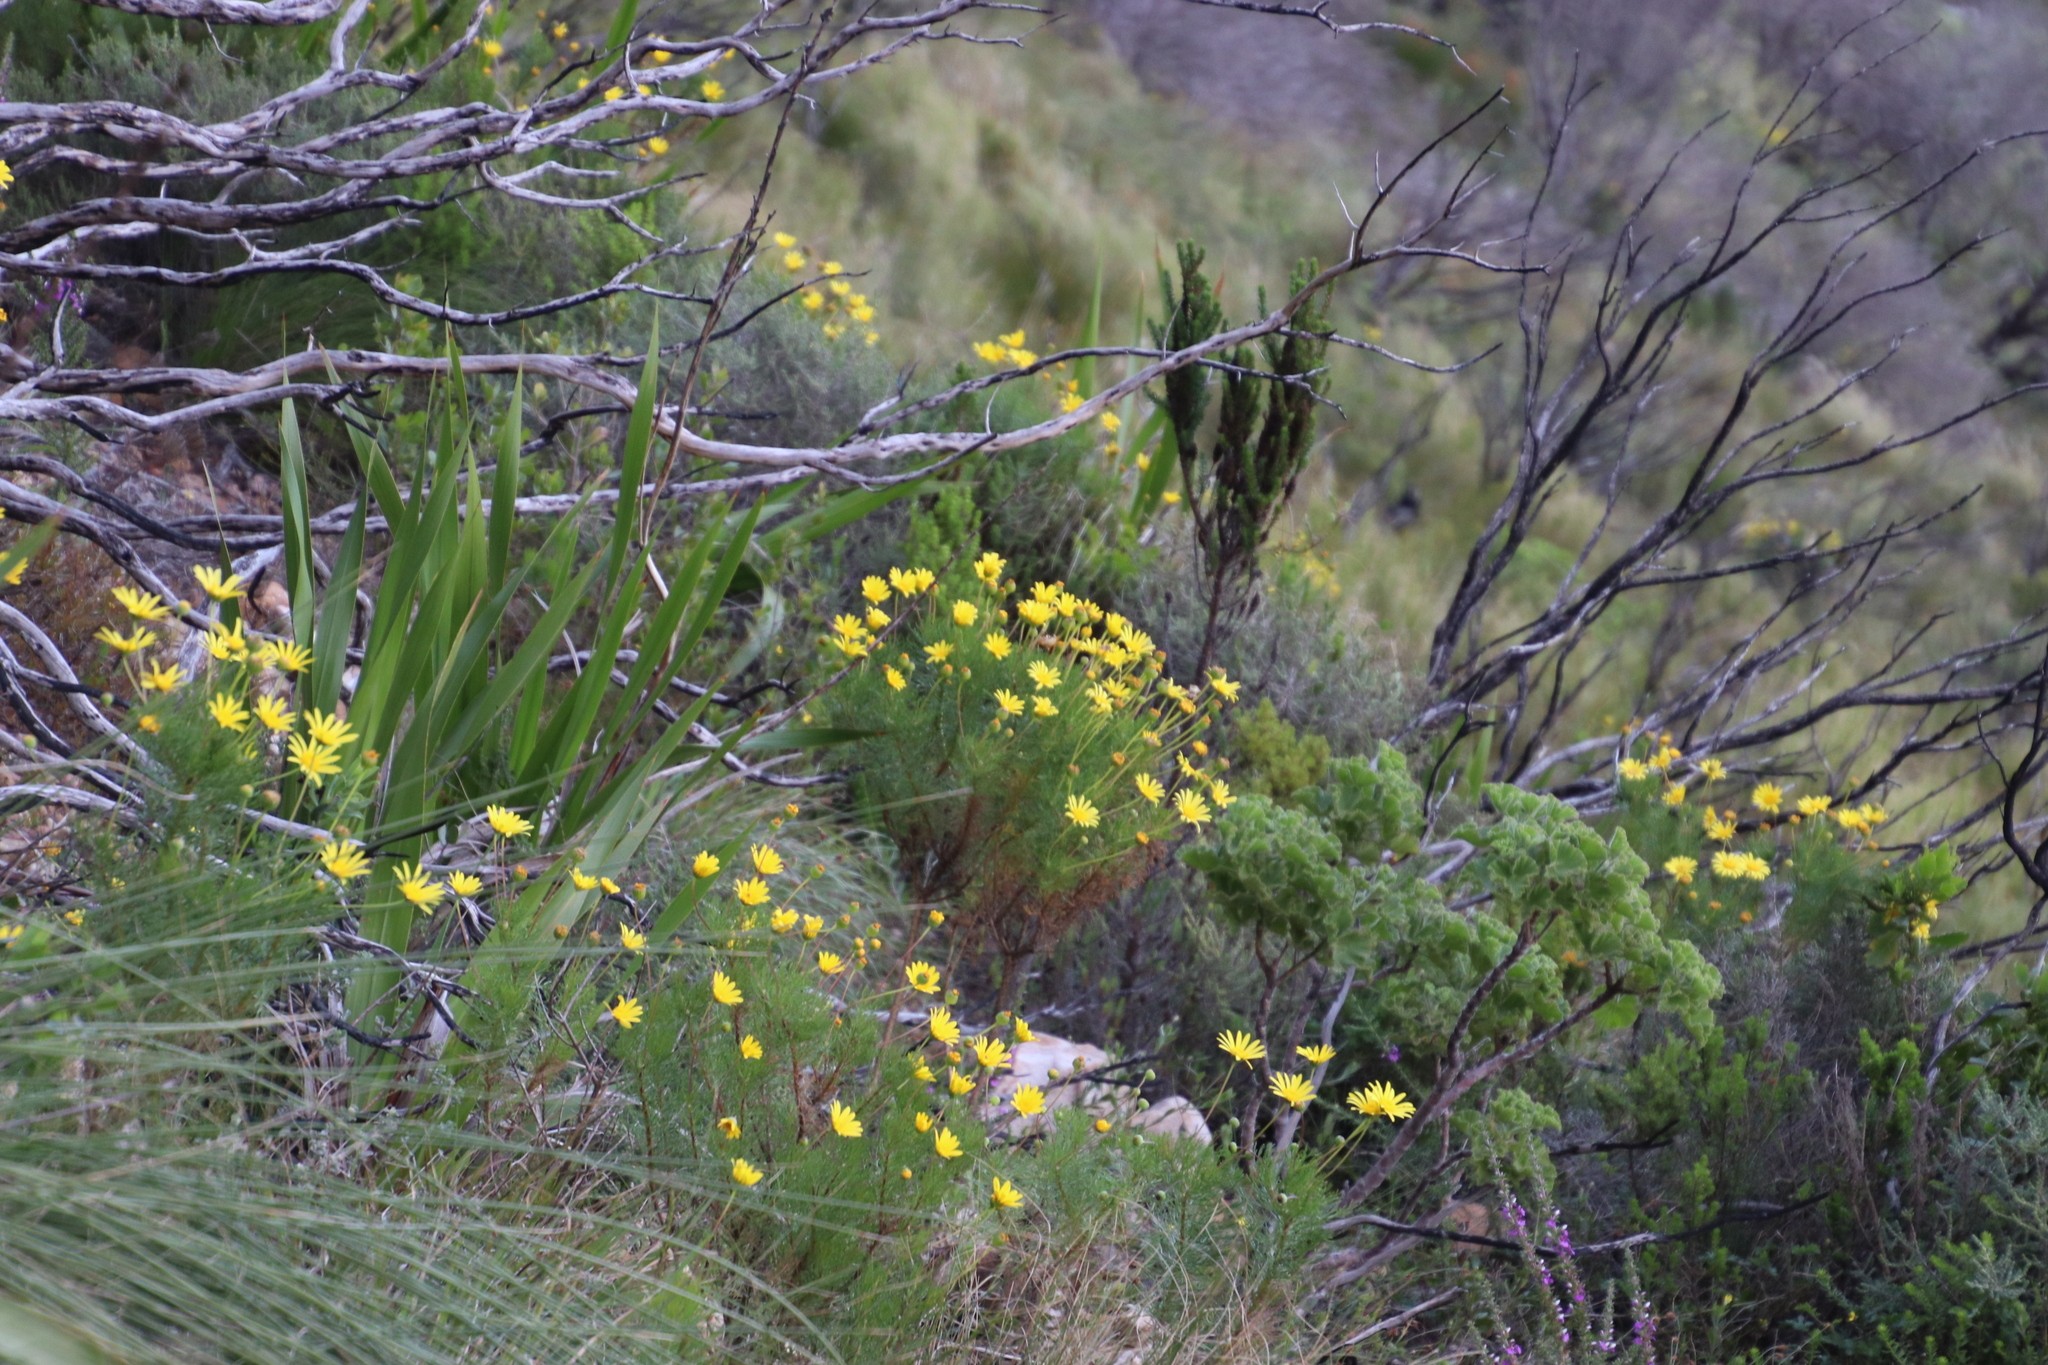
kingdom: Plantae
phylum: Tracheophyta
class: Magnoliopsida
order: Asterales
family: Asteraceae
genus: Euryops
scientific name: Euryops abrotanifolius
